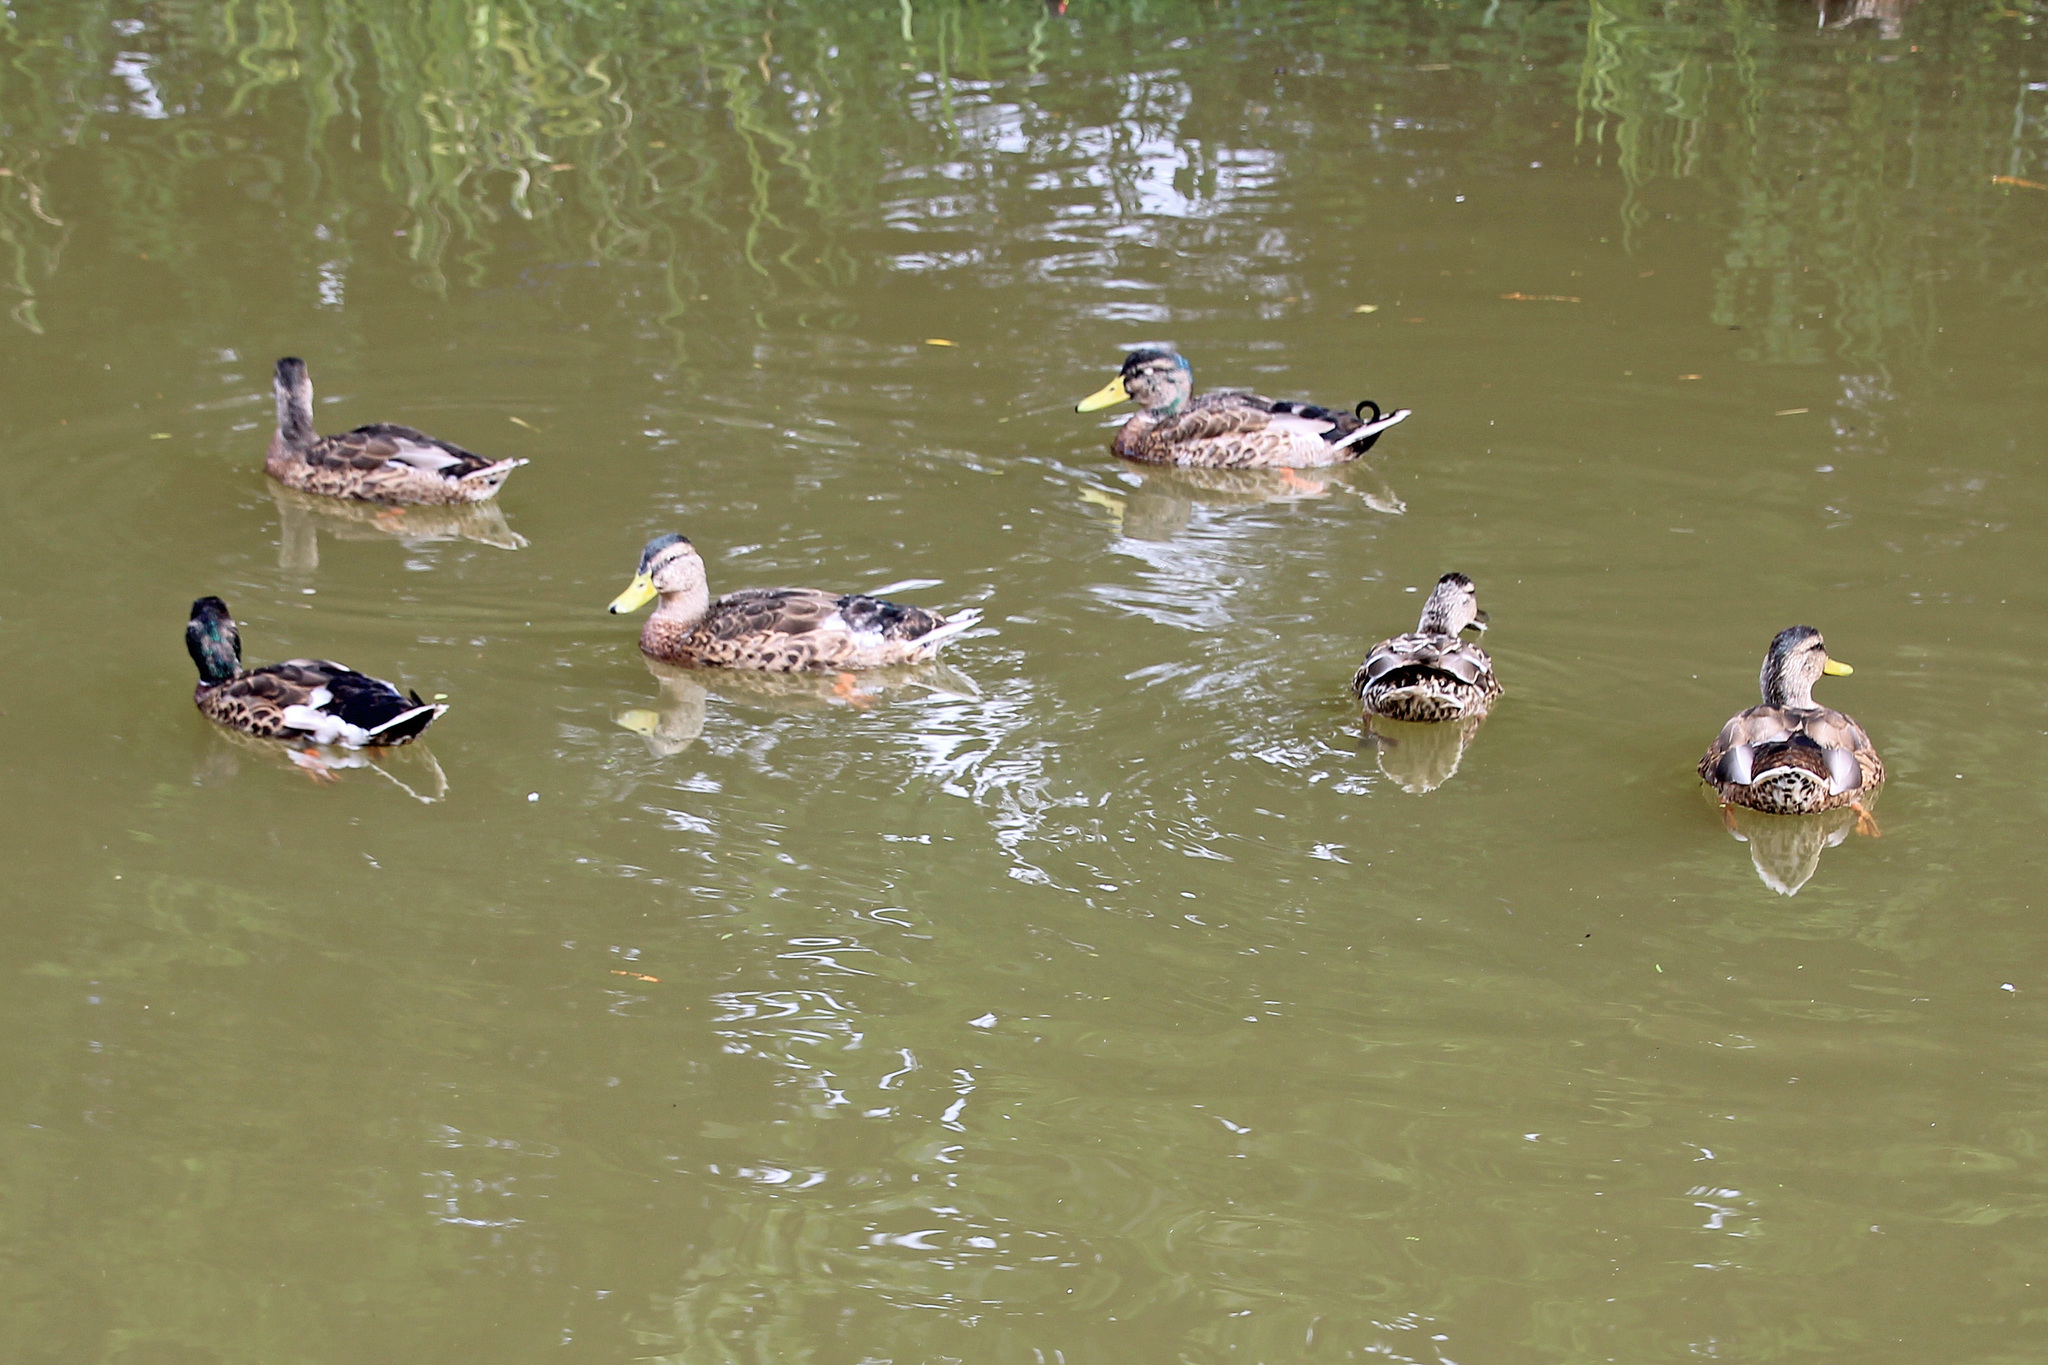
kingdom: Animalia
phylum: Chordata
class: Aves
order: Anseriformes
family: Anatidae
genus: Anas
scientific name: Anas platyrhynchos
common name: Mallard
